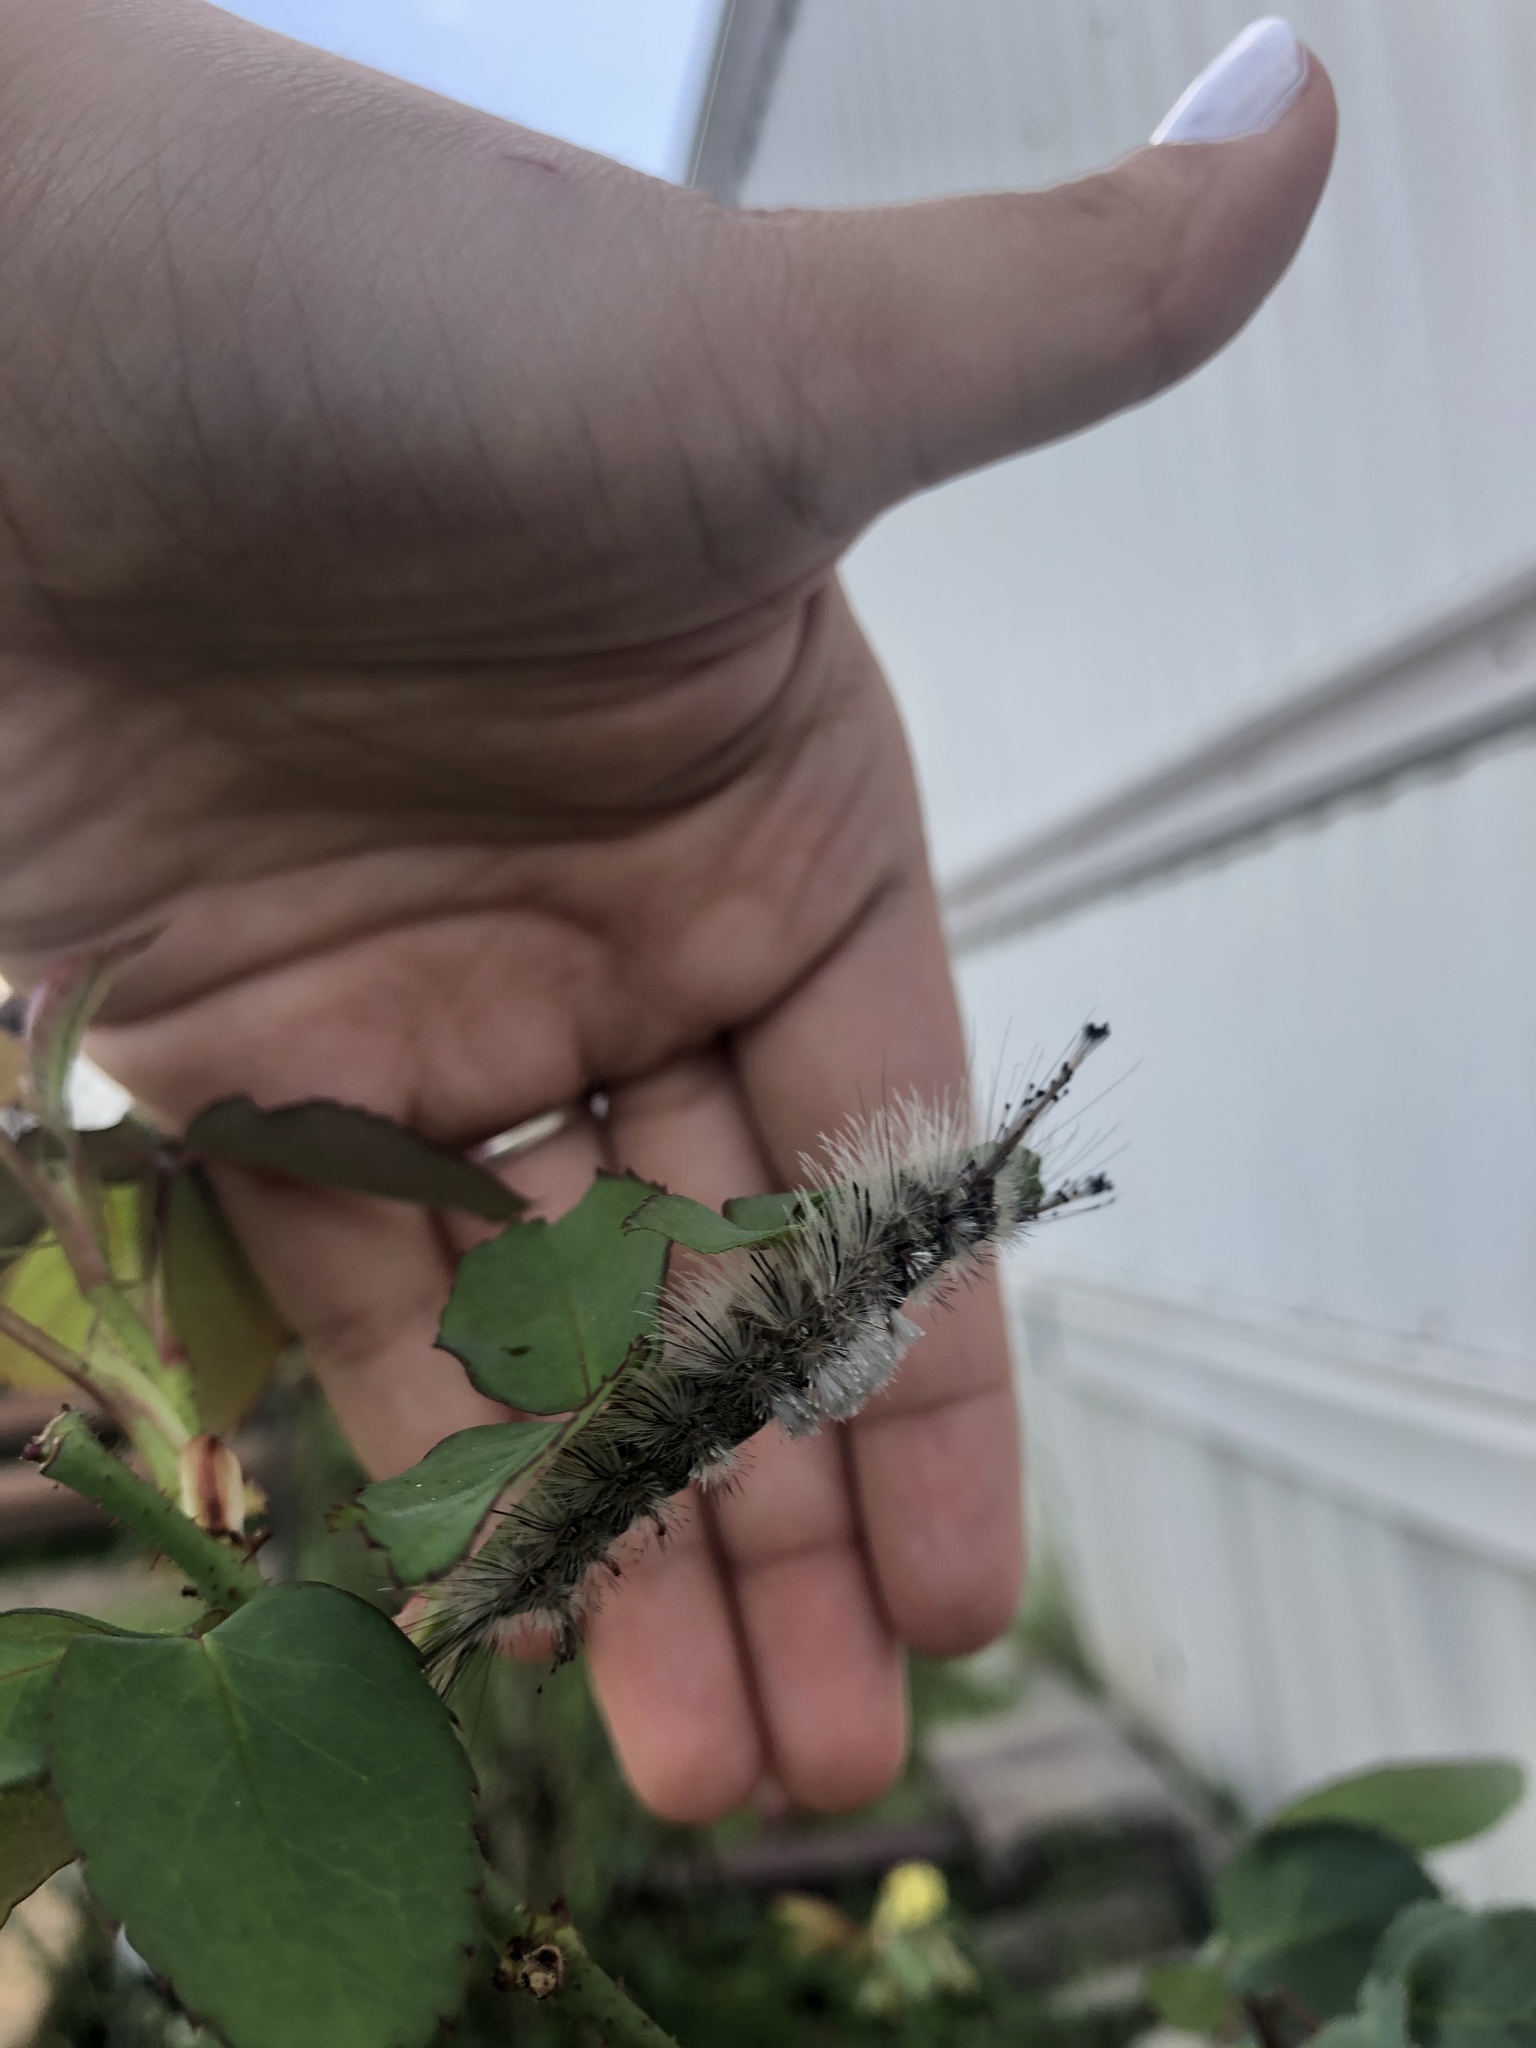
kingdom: Animalia
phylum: Arthropoda
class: Insecta
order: Lepidoptera
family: Erebidae
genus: Dasychira
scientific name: Dasychira meridionalis
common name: Southern tussock moth
